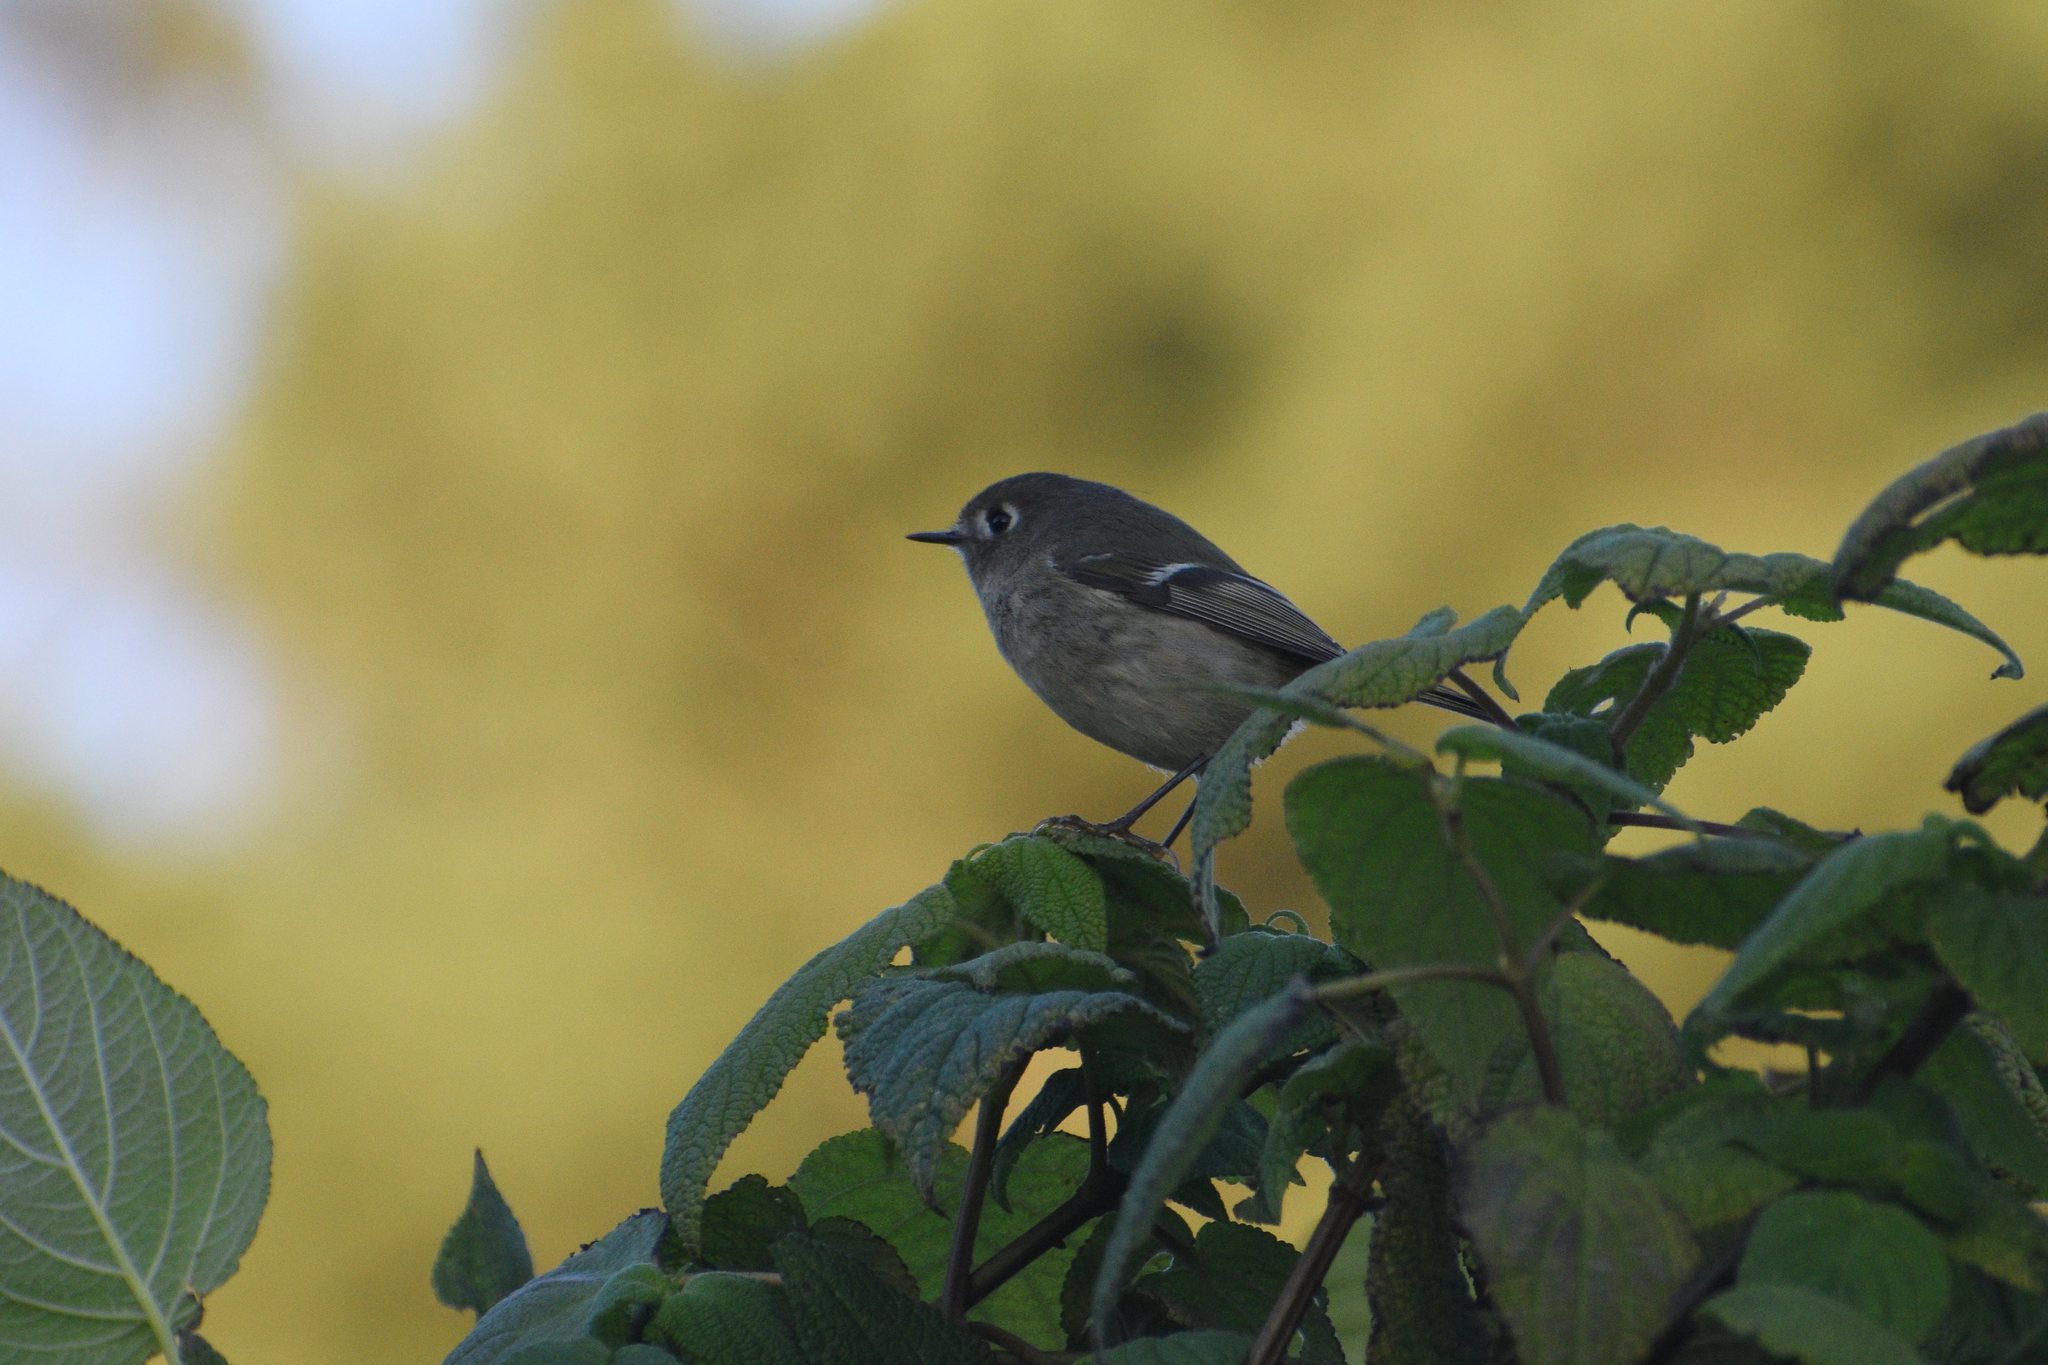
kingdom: Animalia
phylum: Chordata
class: Aves
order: Passeriformes
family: Regulidae
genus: Regulus
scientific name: Regulus calendula
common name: Ruby-crowned kinglet
